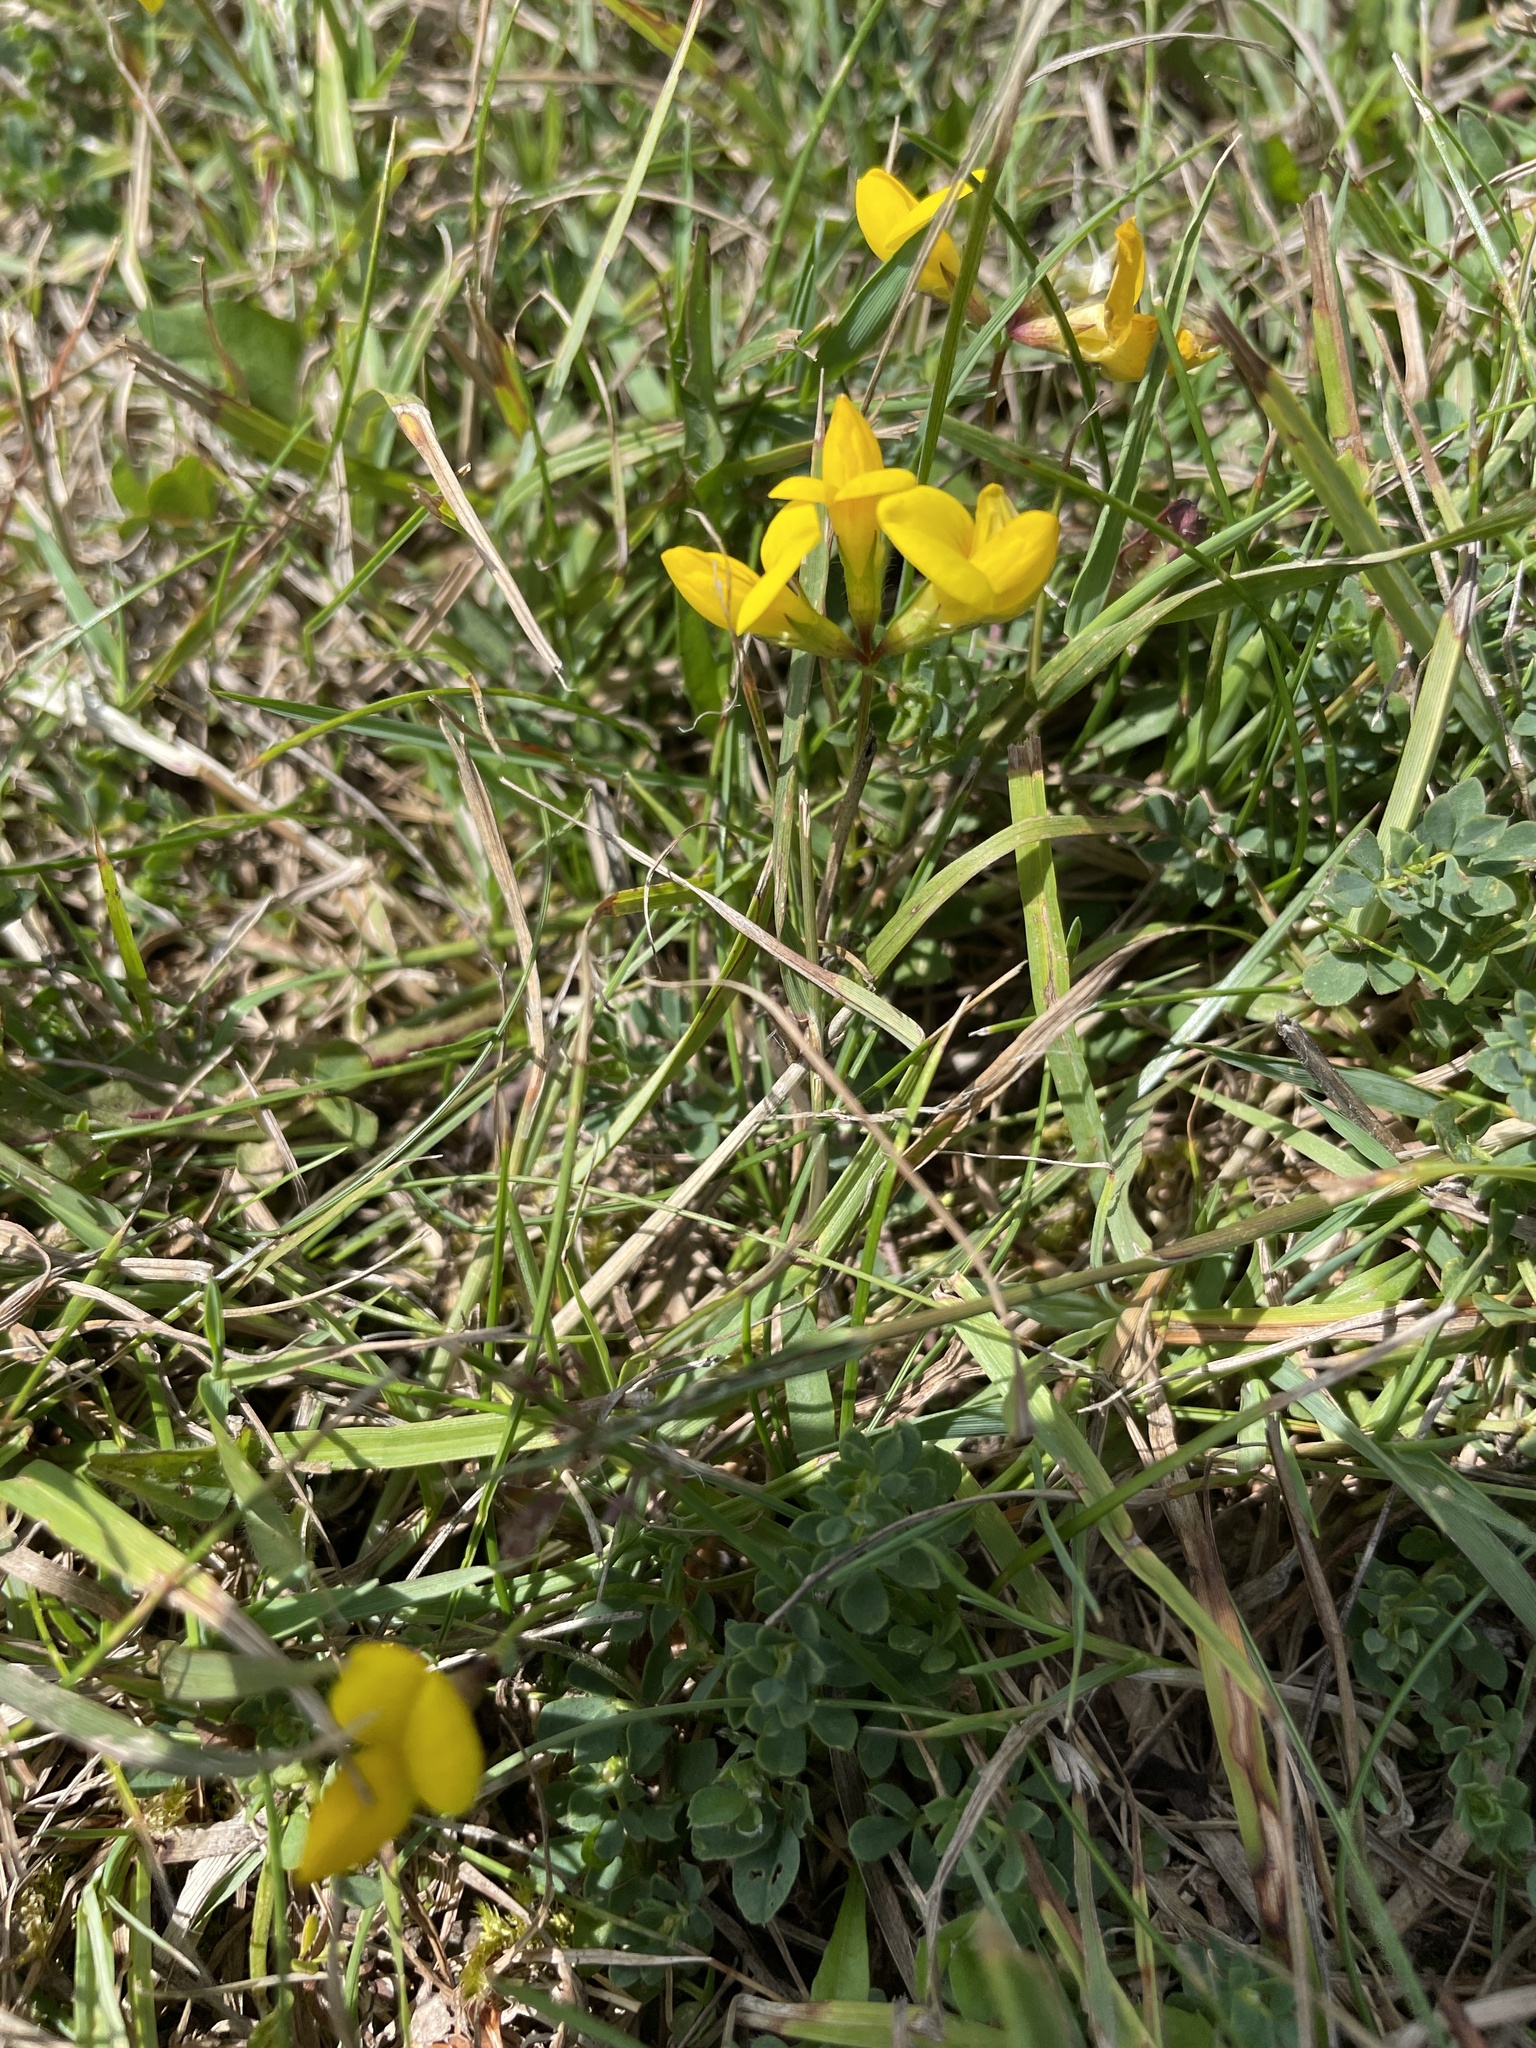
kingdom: Plantae
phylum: Tracheophyta
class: Magnoliopsida
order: Fabales
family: Fabaceae
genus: Lotus
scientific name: Lotus corniculatus
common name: Common bird's-foot-trefoil
